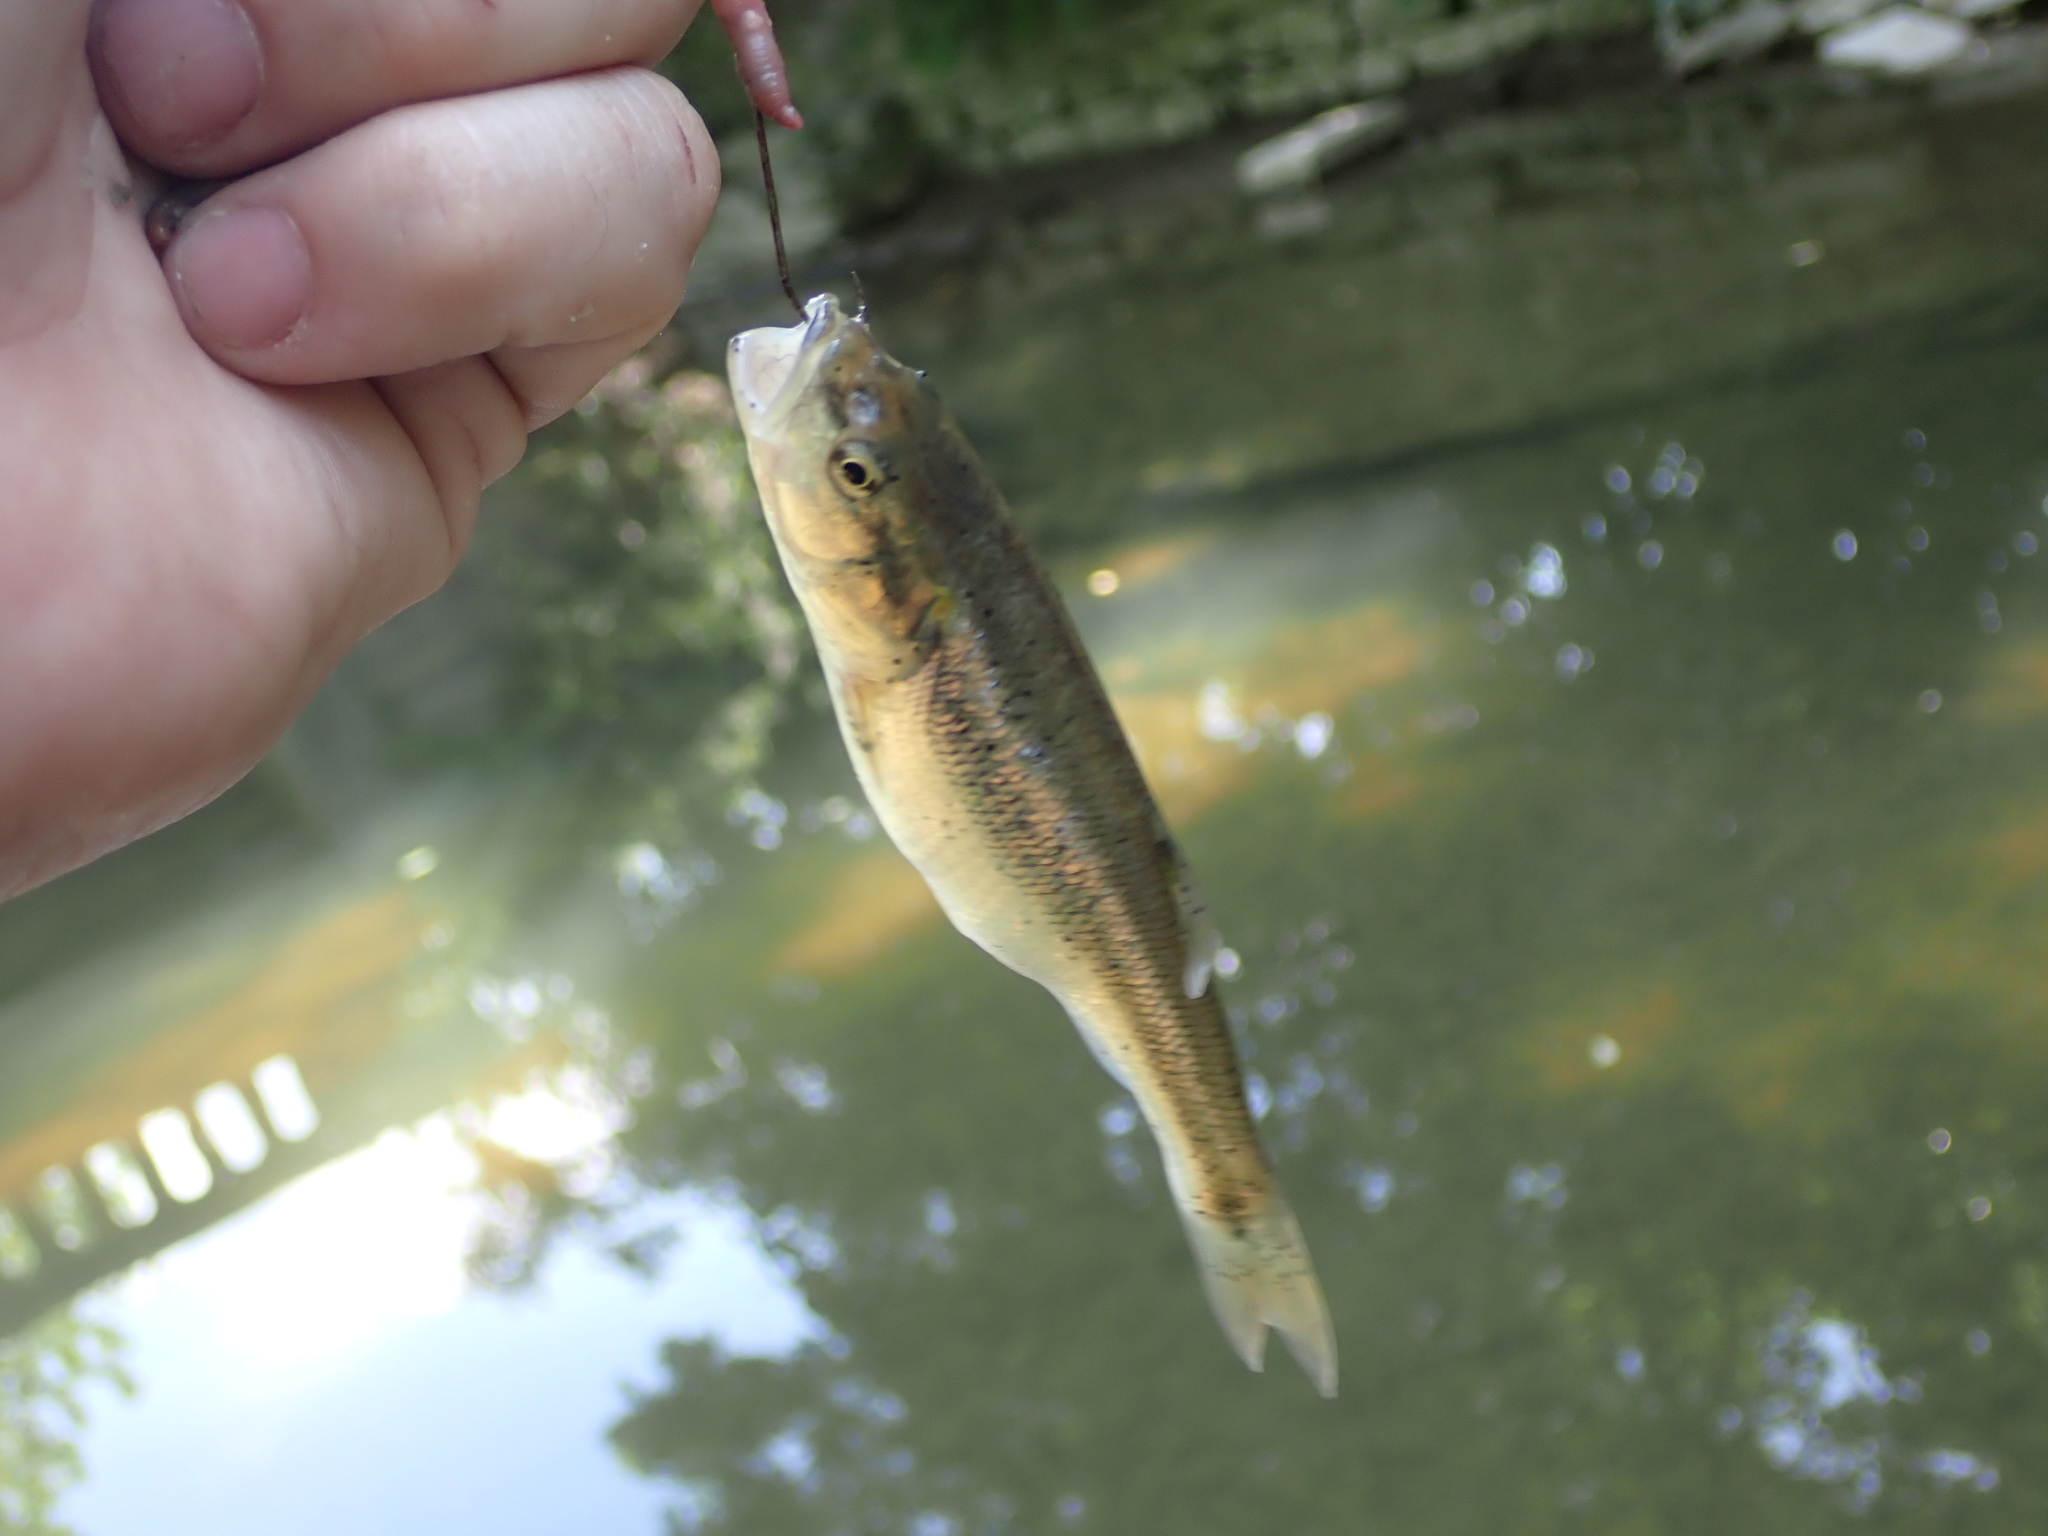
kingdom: Animalia
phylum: Chordata
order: Cypriniformes
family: Cyprinidae
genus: Semotilus
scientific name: Semotilus atromaculatus
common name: Creek chub
